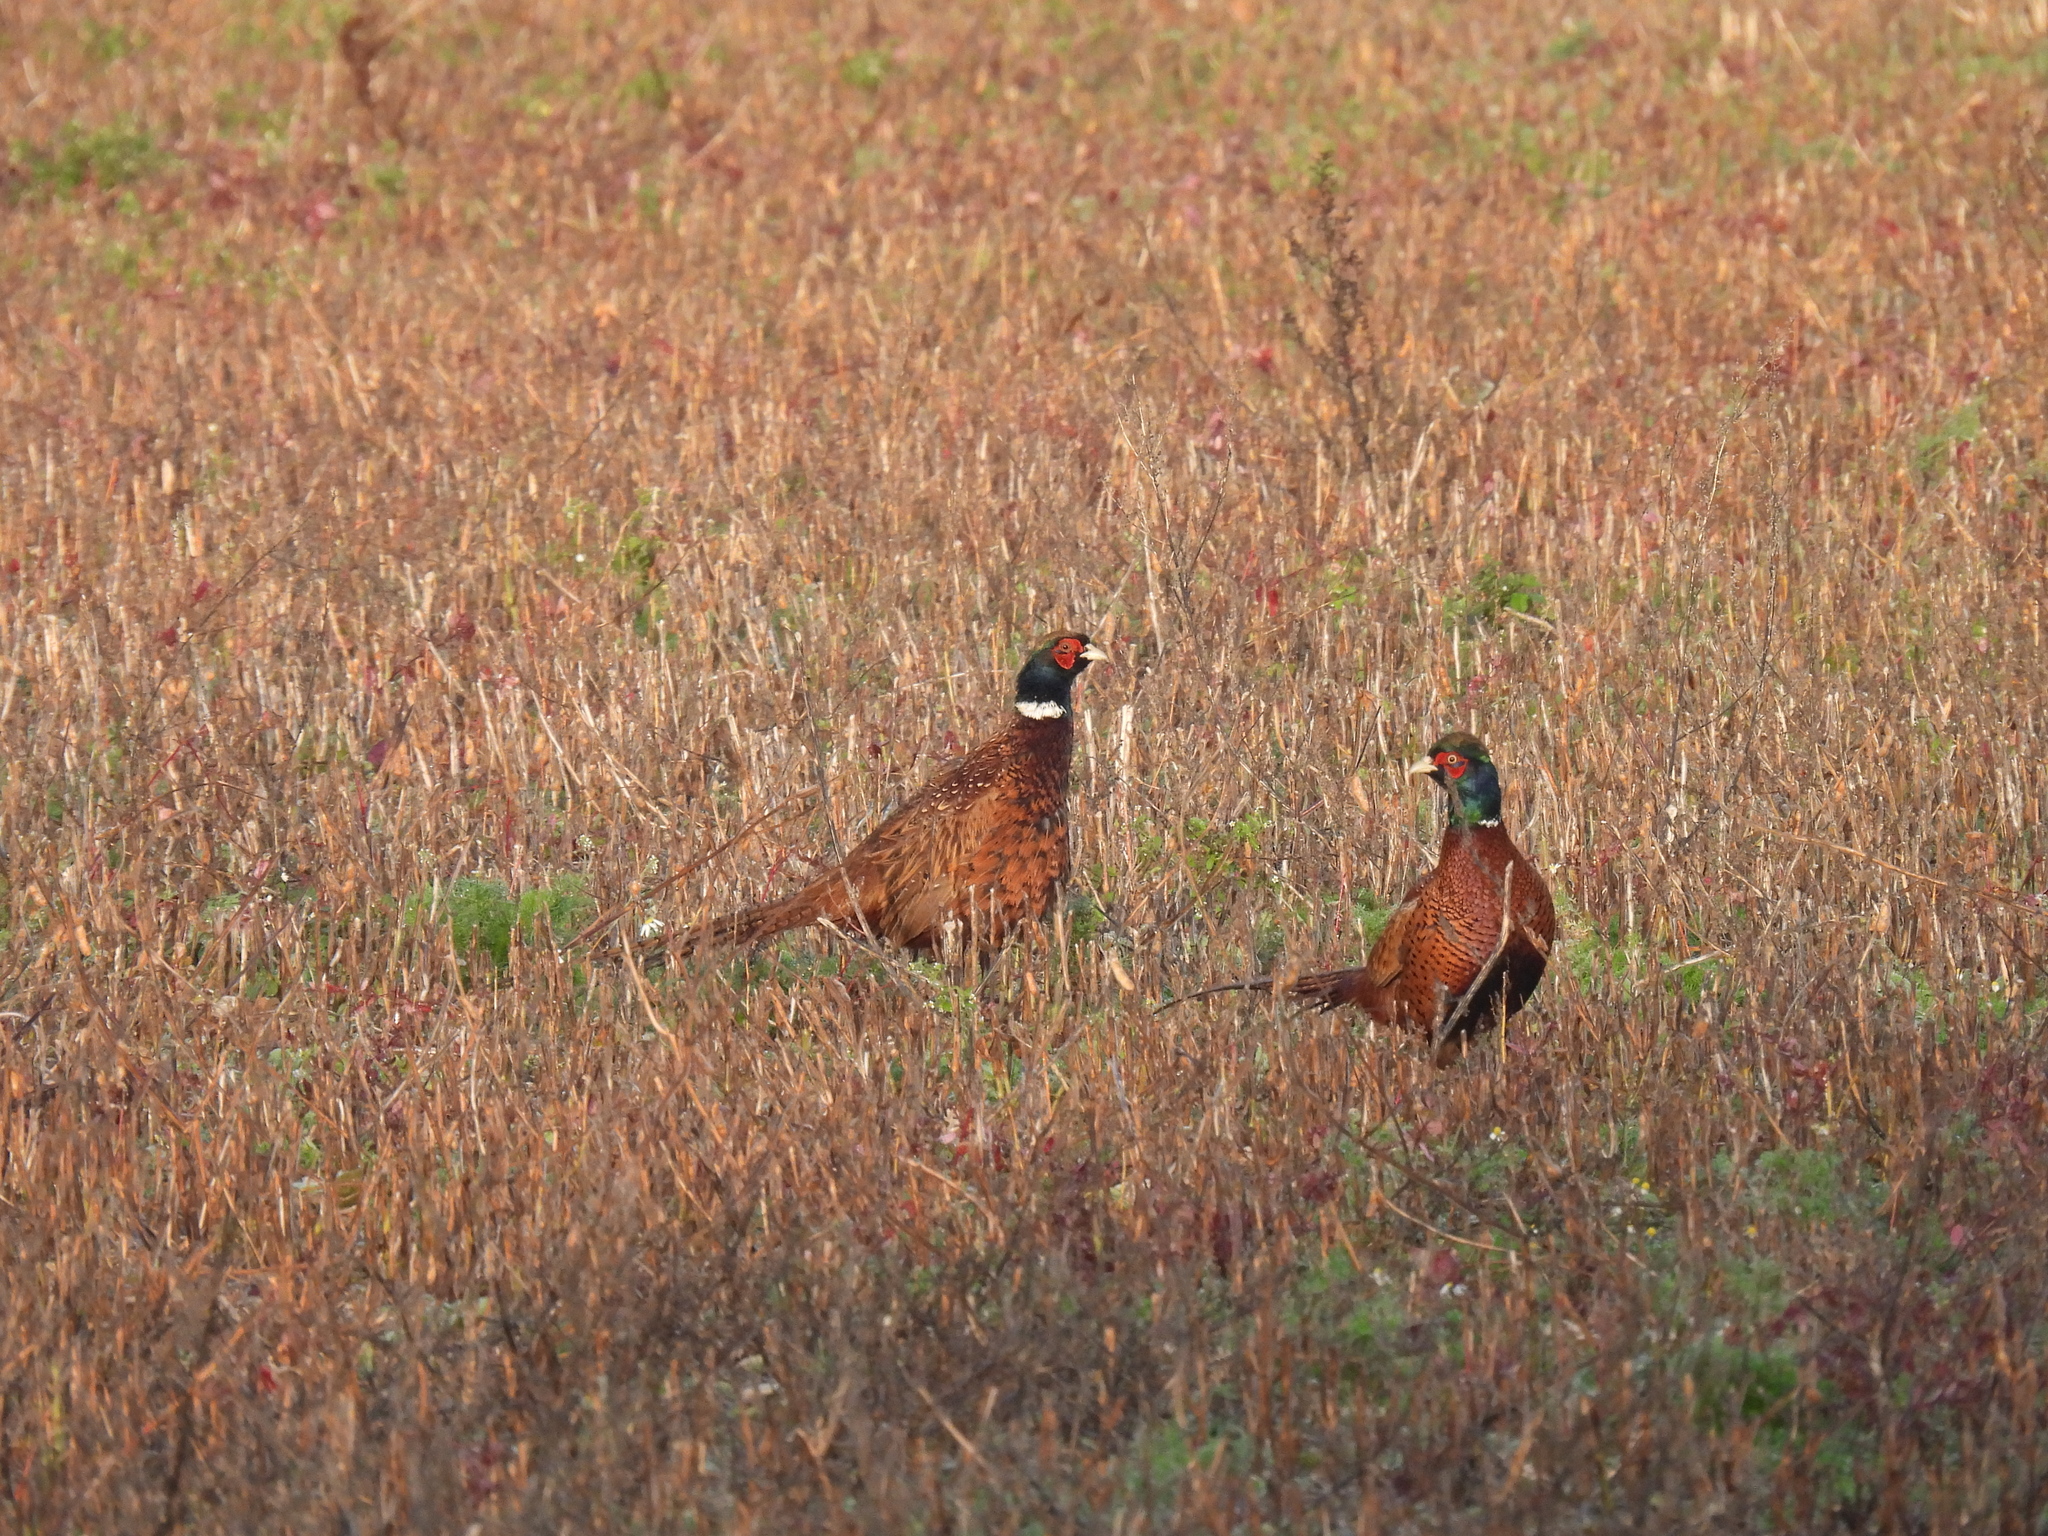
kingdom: Animalia
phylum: Chordata
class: Aves
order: Galliformes
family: Phasianidae
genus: Phasianus
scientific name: Phasianus colchicus
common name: Common pheasant
